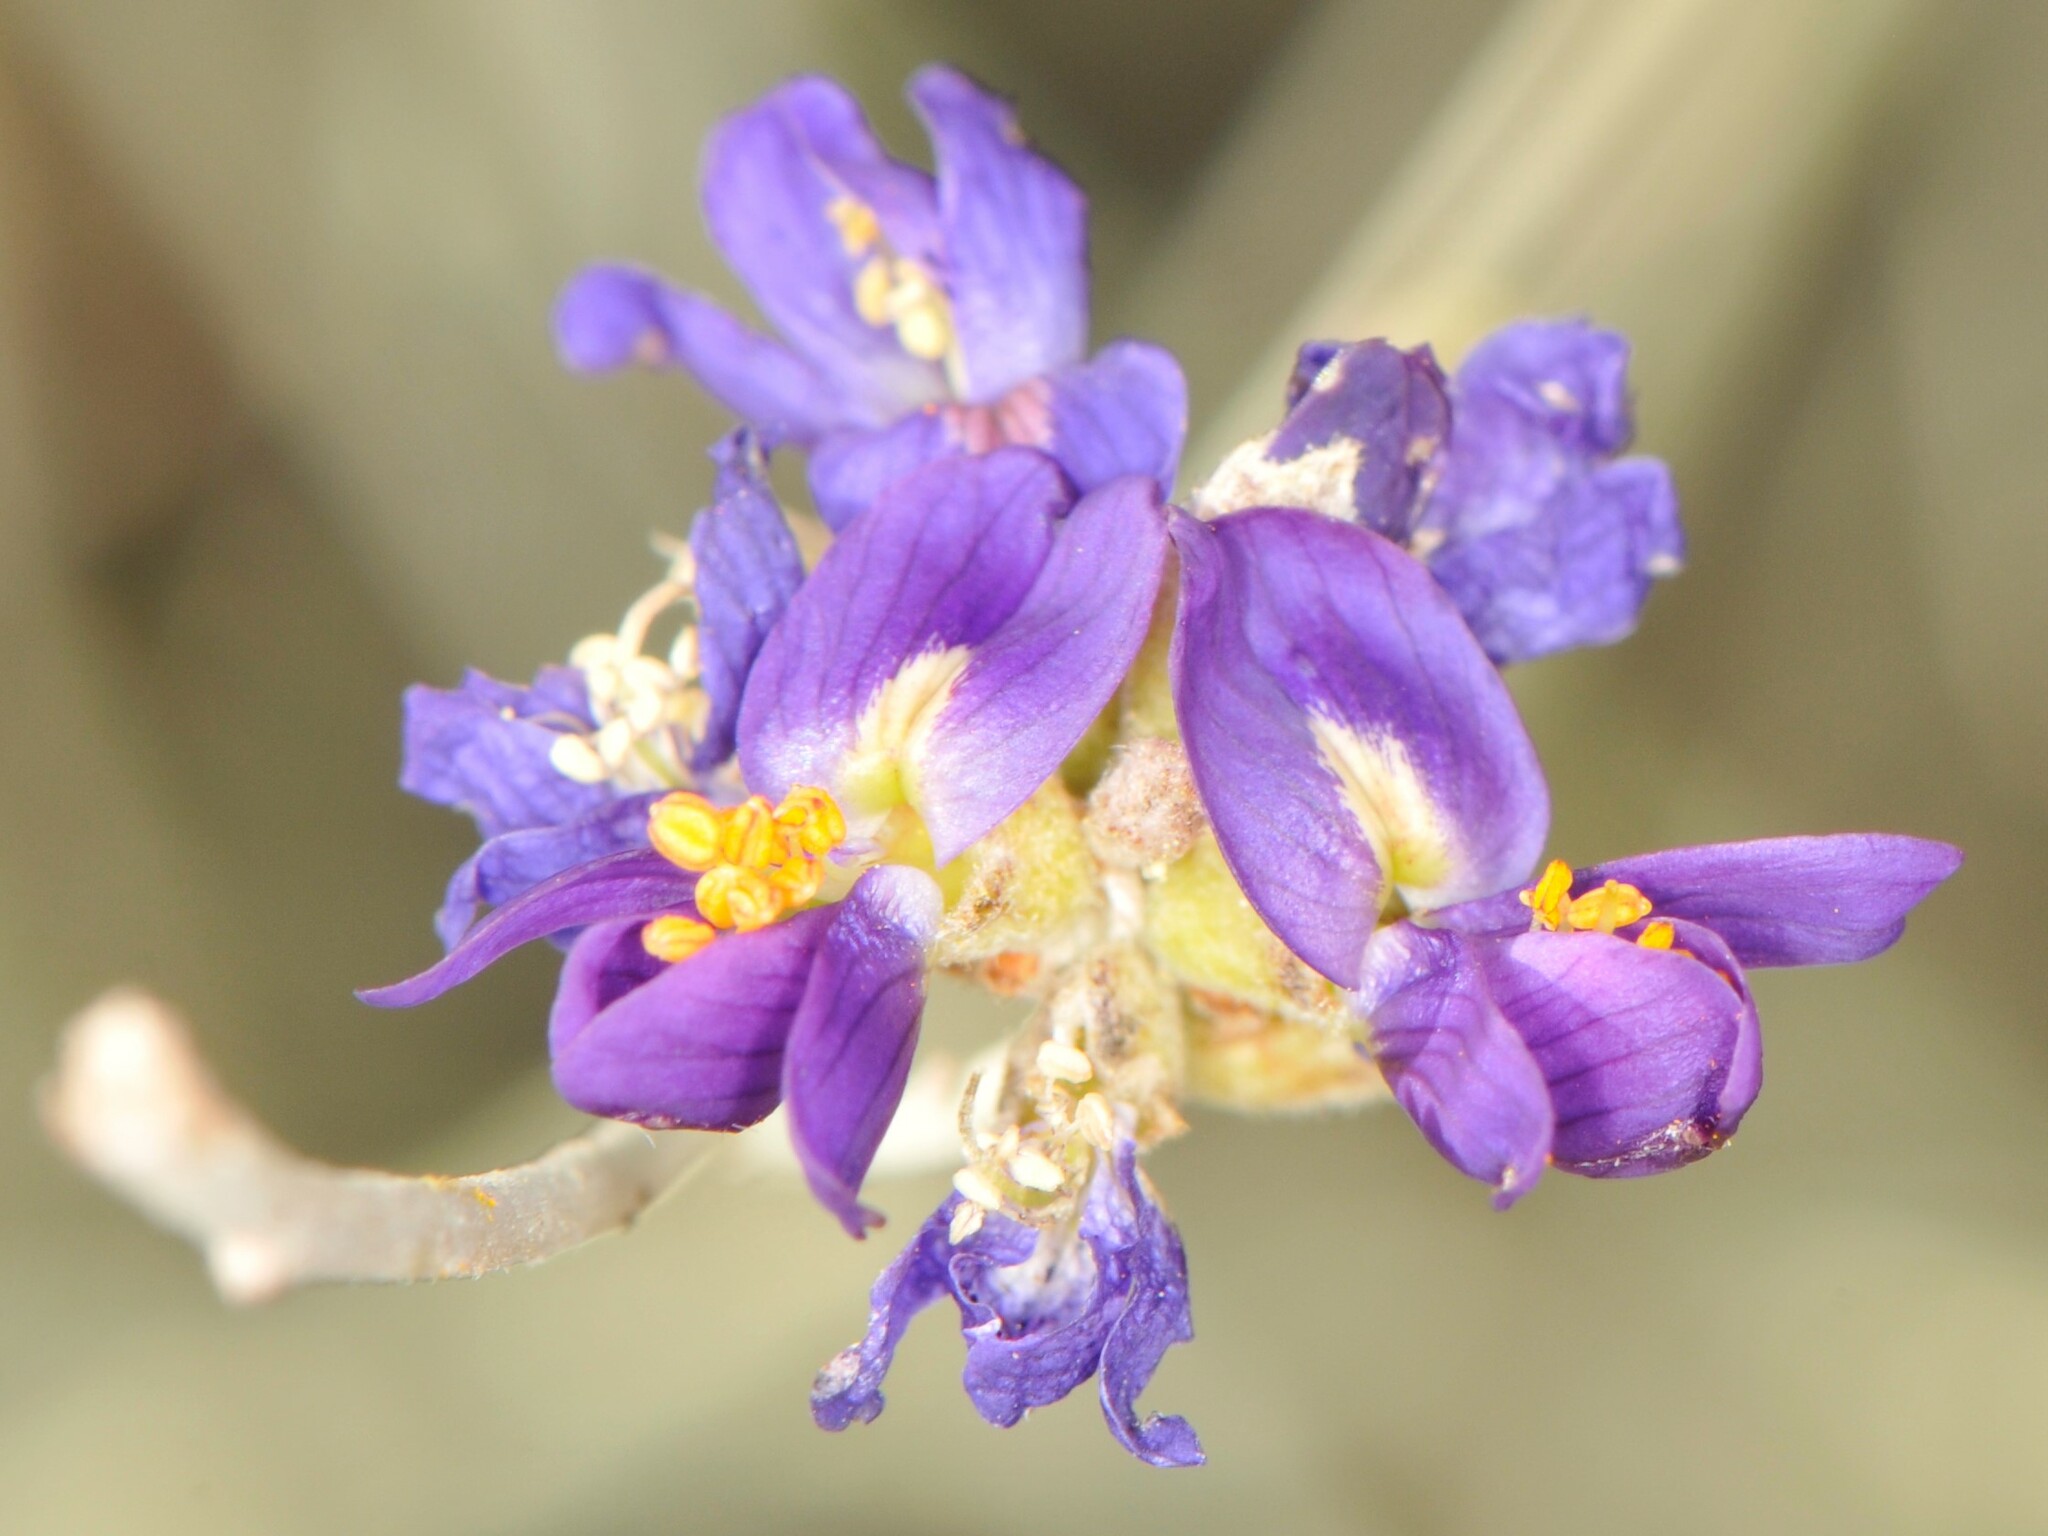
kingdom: Plantae
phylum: Tracheophyta
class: Magnoliopsida
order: Fabales
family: Fabaceae
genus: Psorothamnus
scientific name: Psorothamnus scoparius
